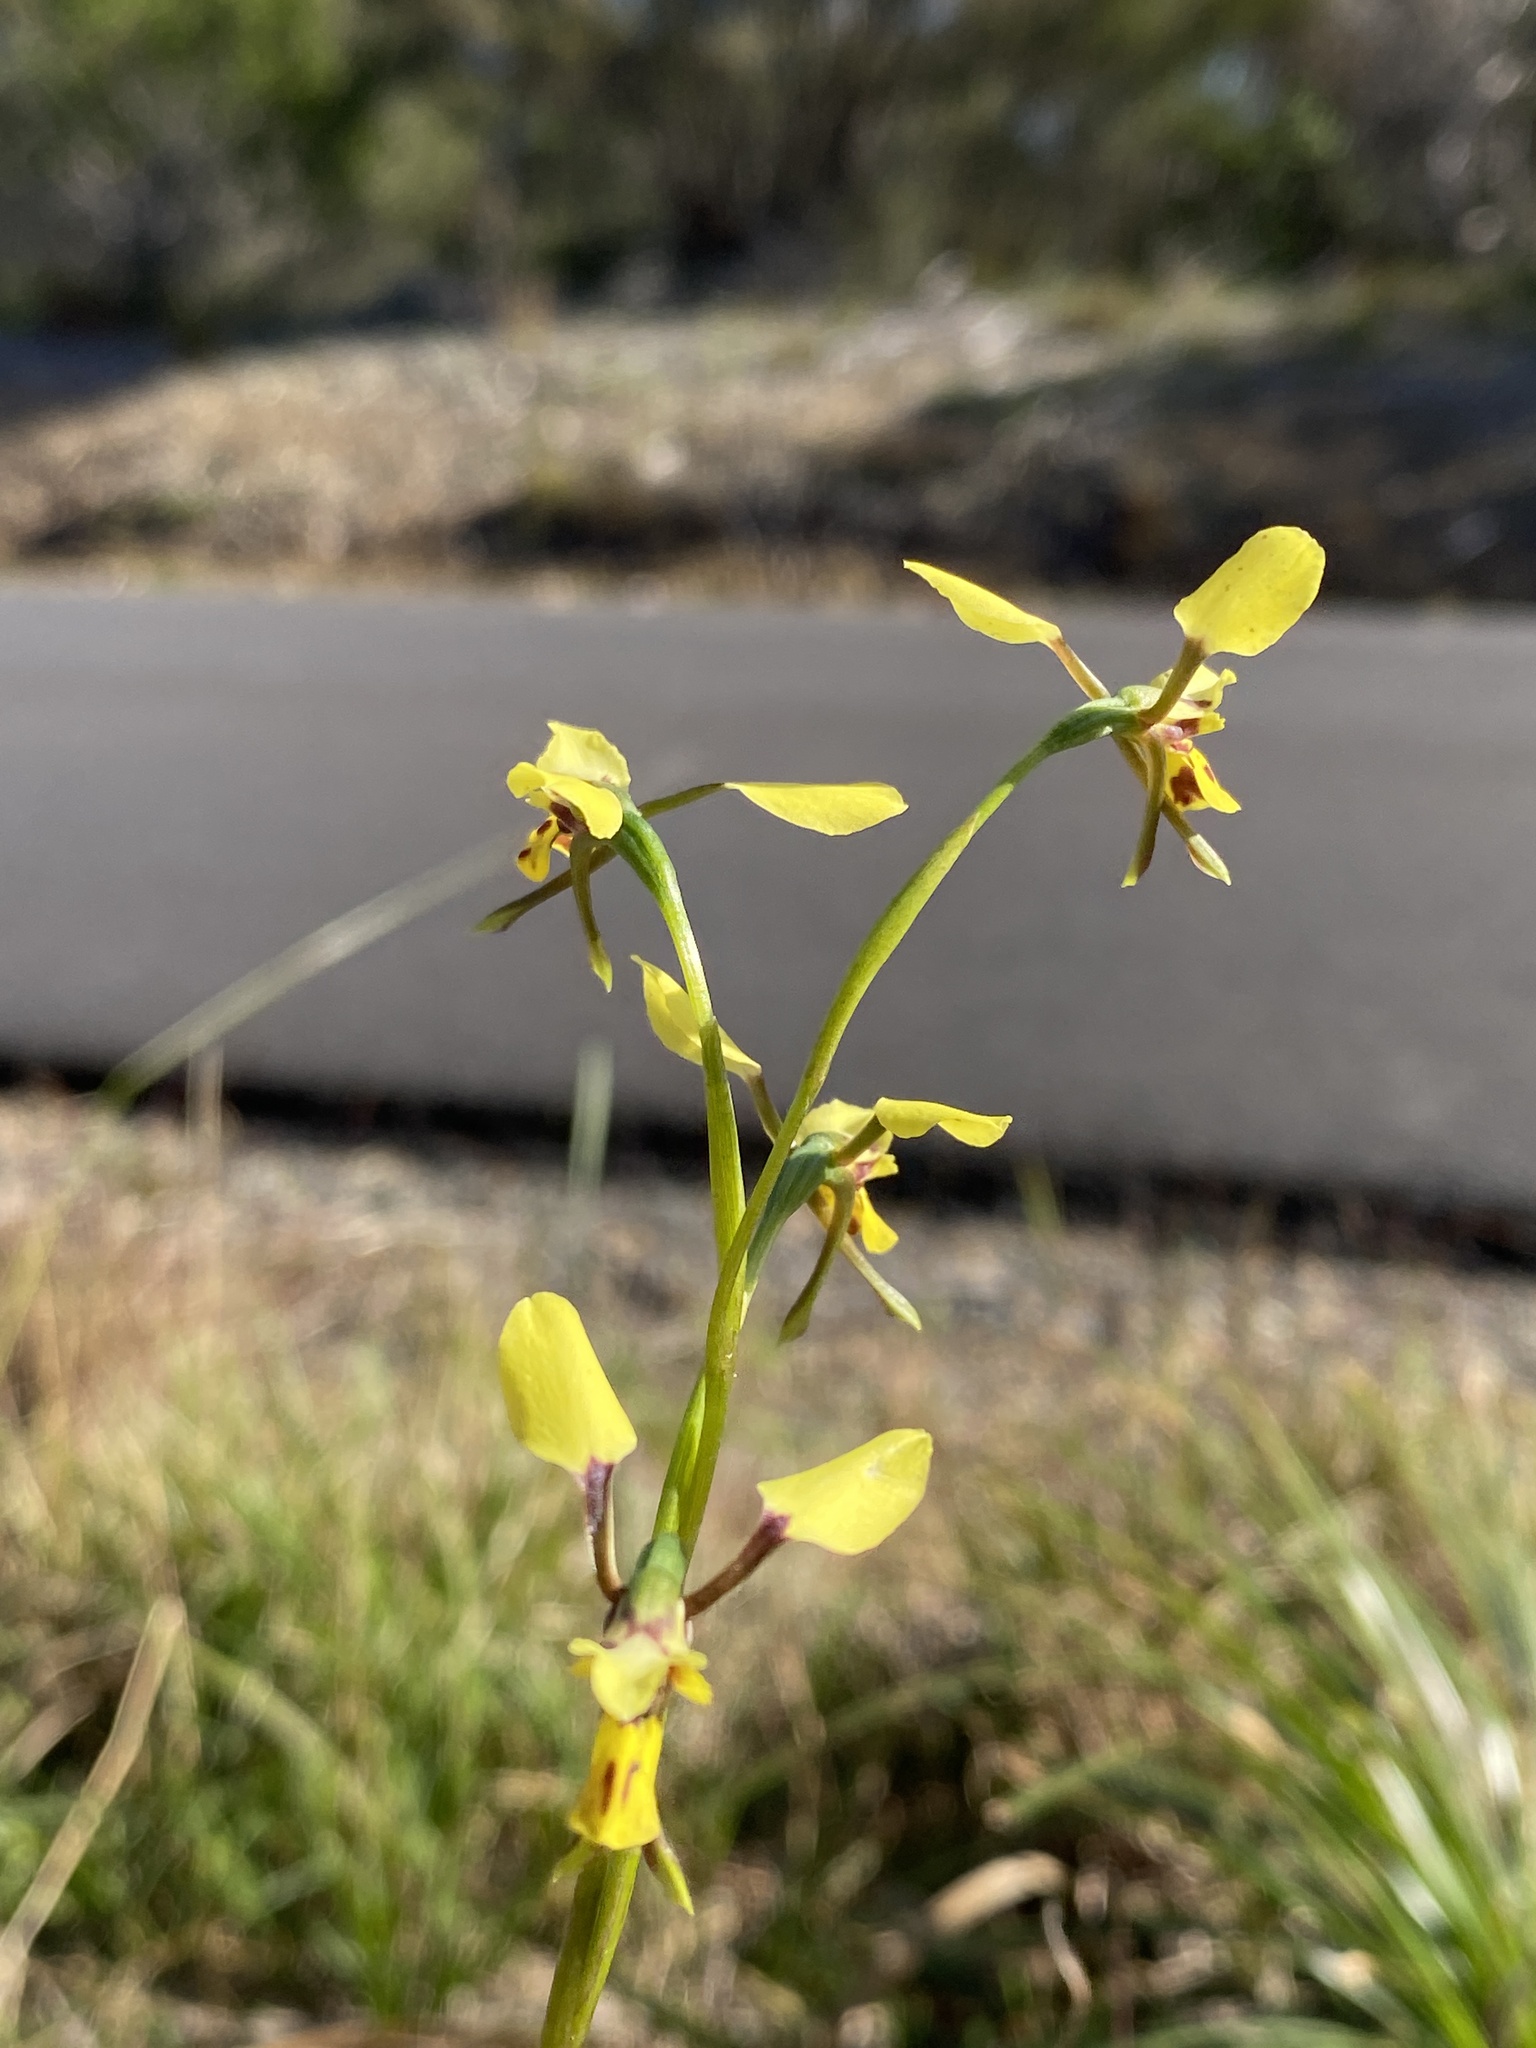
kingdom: Plantae
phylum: Tracheophyta
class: Liliopsida
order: Asparagales
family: Orchidaceae
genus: Diuris
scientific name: Diuris praecox
